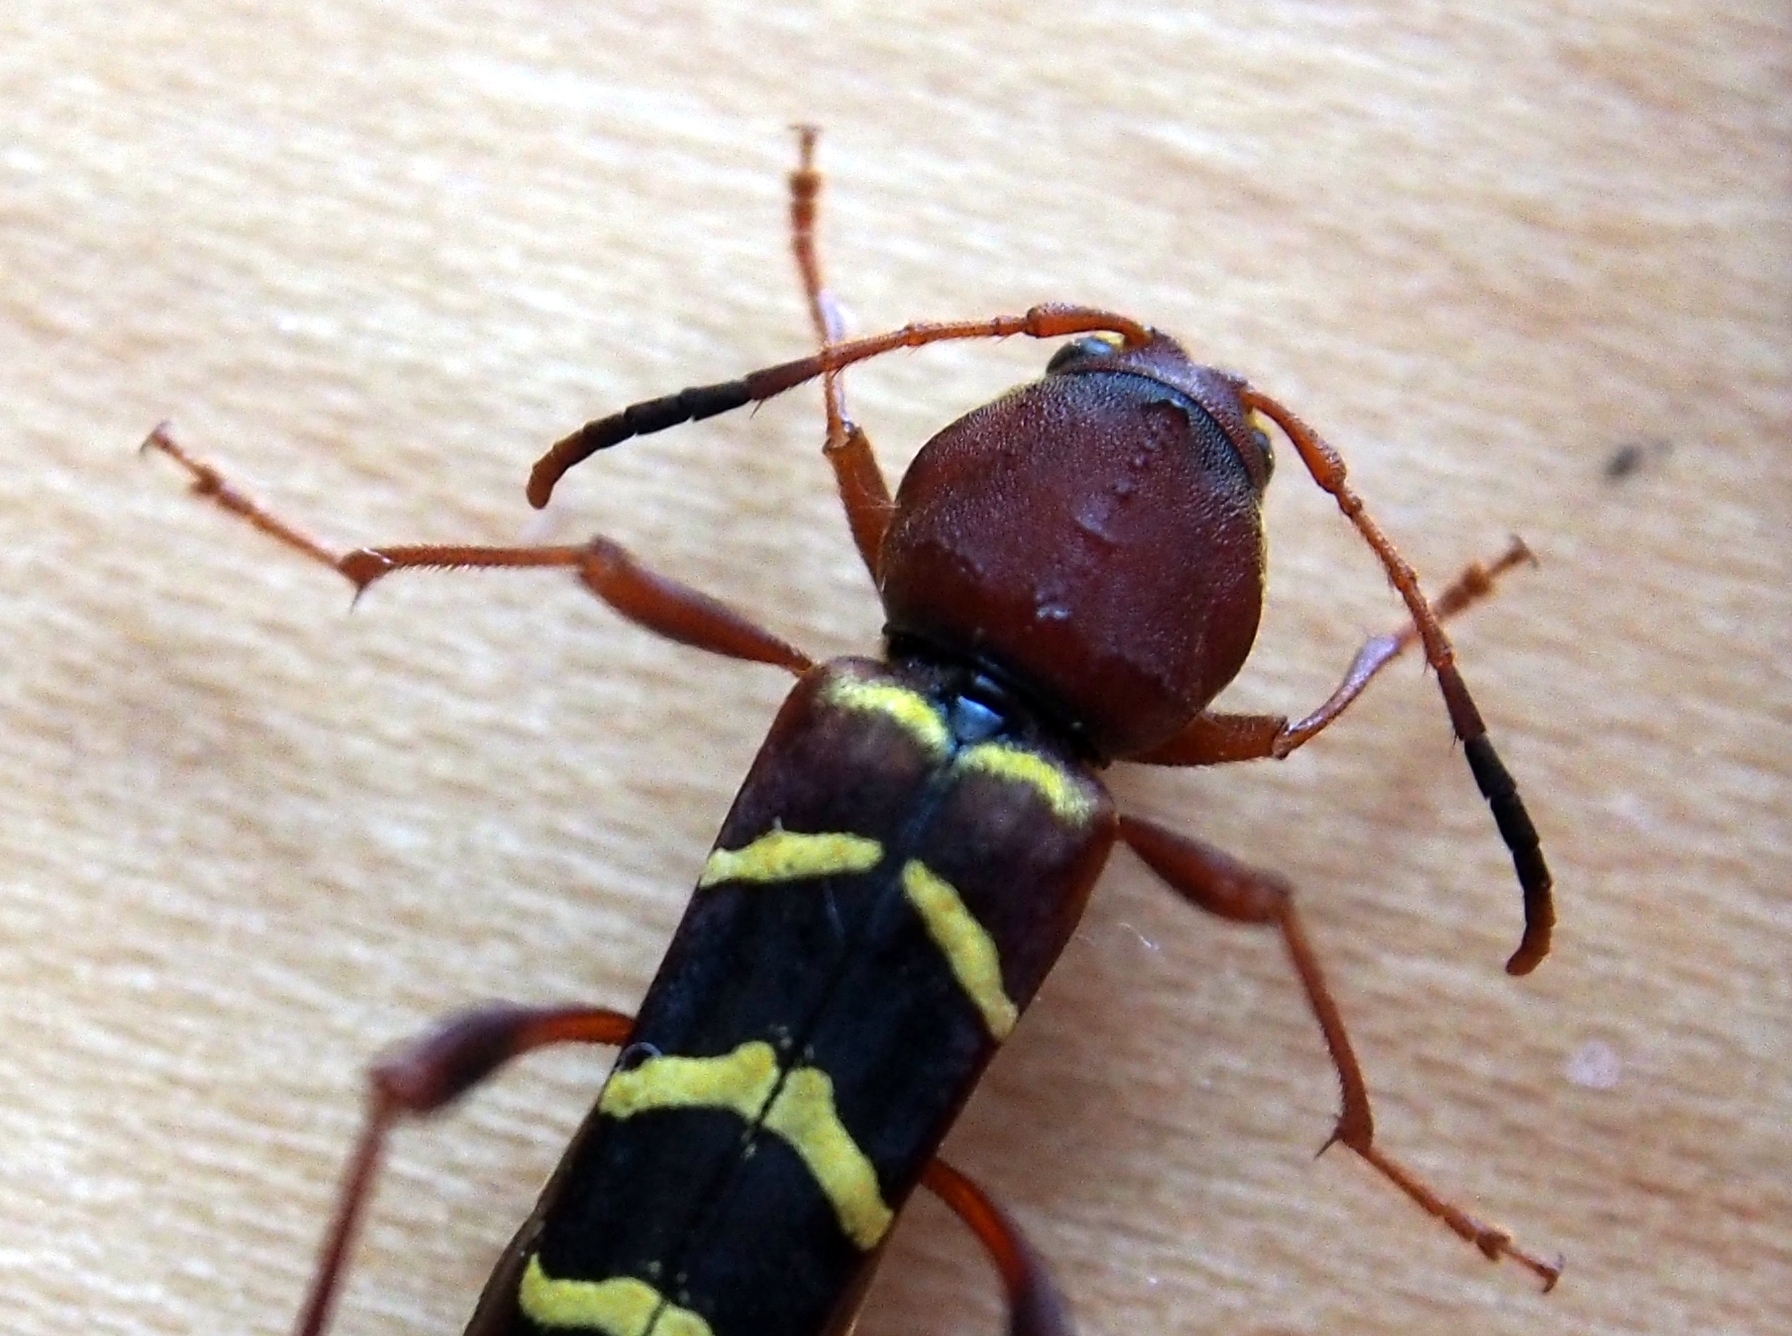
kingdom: Animalia
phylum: Arthropoda
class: Insecta
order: Coleoptera
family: Cerambycidae
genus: Neoclytus
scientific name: Neoclytus acuminatus
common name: Read-headed ash borer
